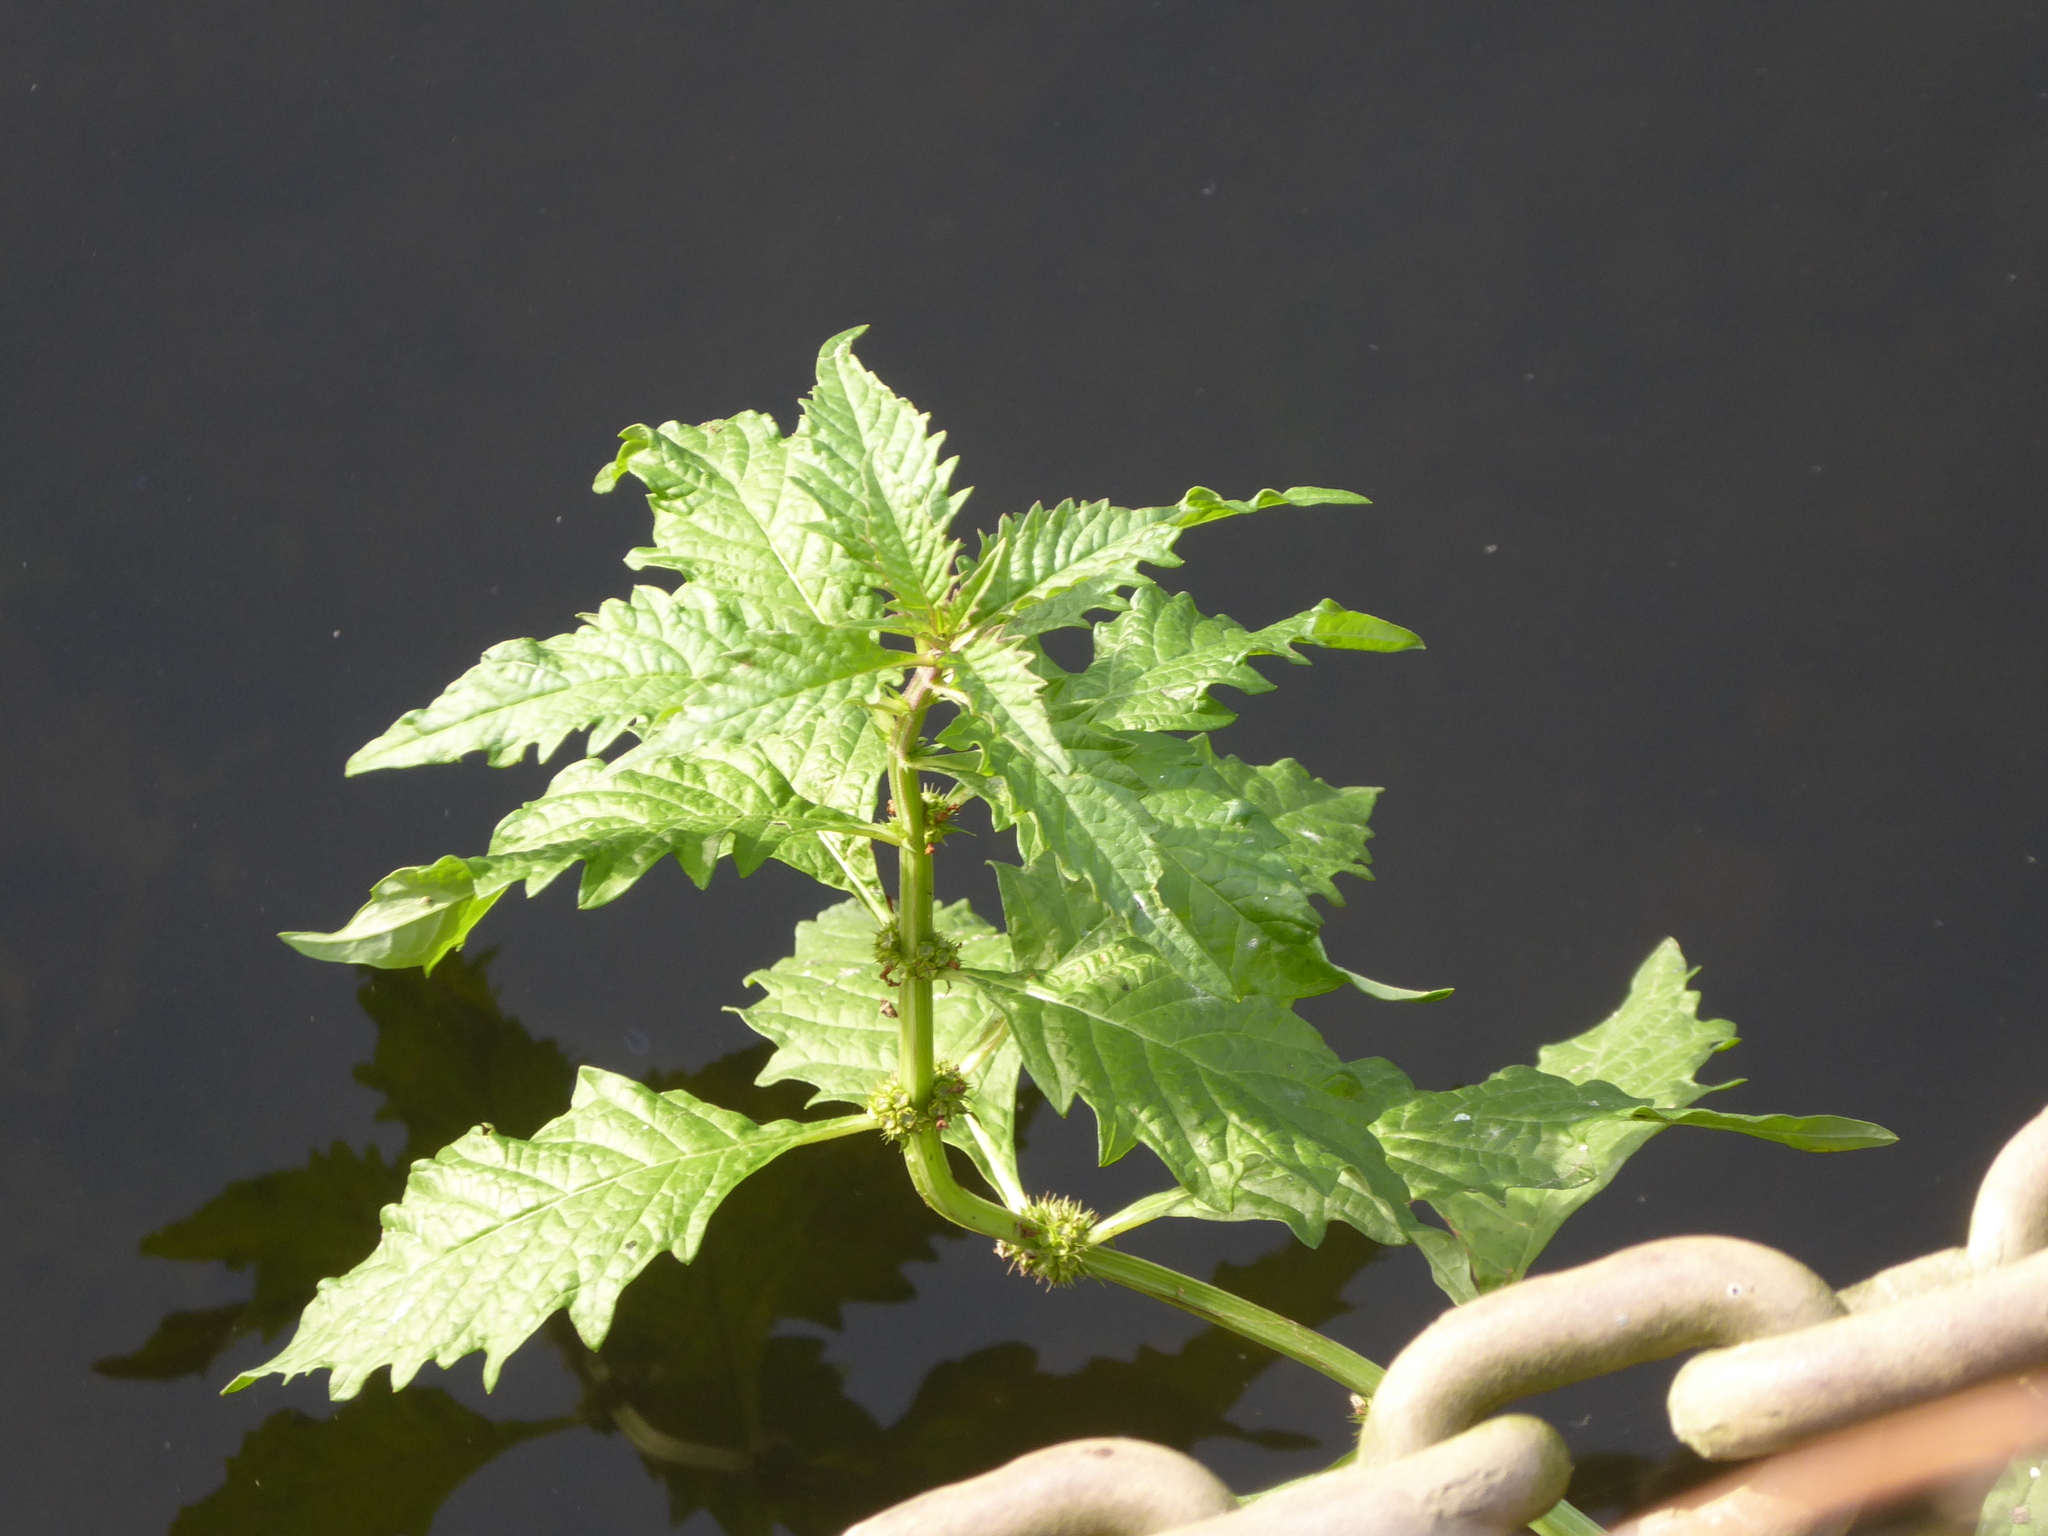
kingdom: Plantae
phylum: Tracheophyta
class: Magnoliopsida
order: Lamiales
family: Lamiaceae
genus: Lycopus
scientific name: Lycopus europaeus
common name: European bugleweed
